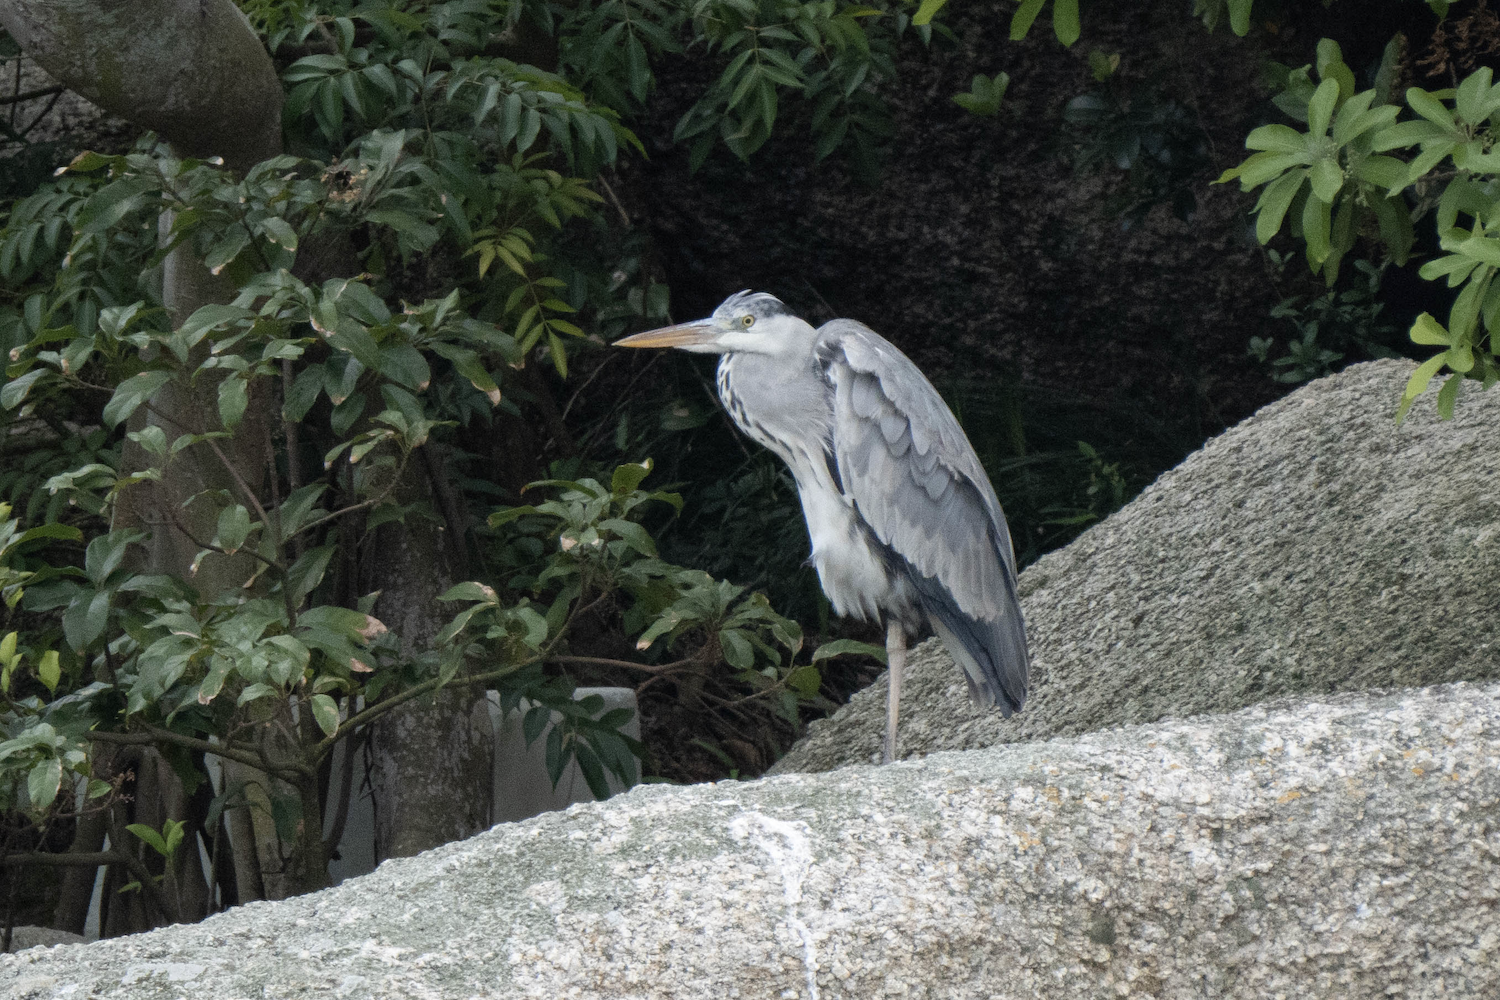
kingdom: Animalia
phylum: Chordata
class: Aves
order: Pelecaniformes
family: Ardeidae
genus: Ardea
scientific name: Ardea cinerea
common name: Grey heron
